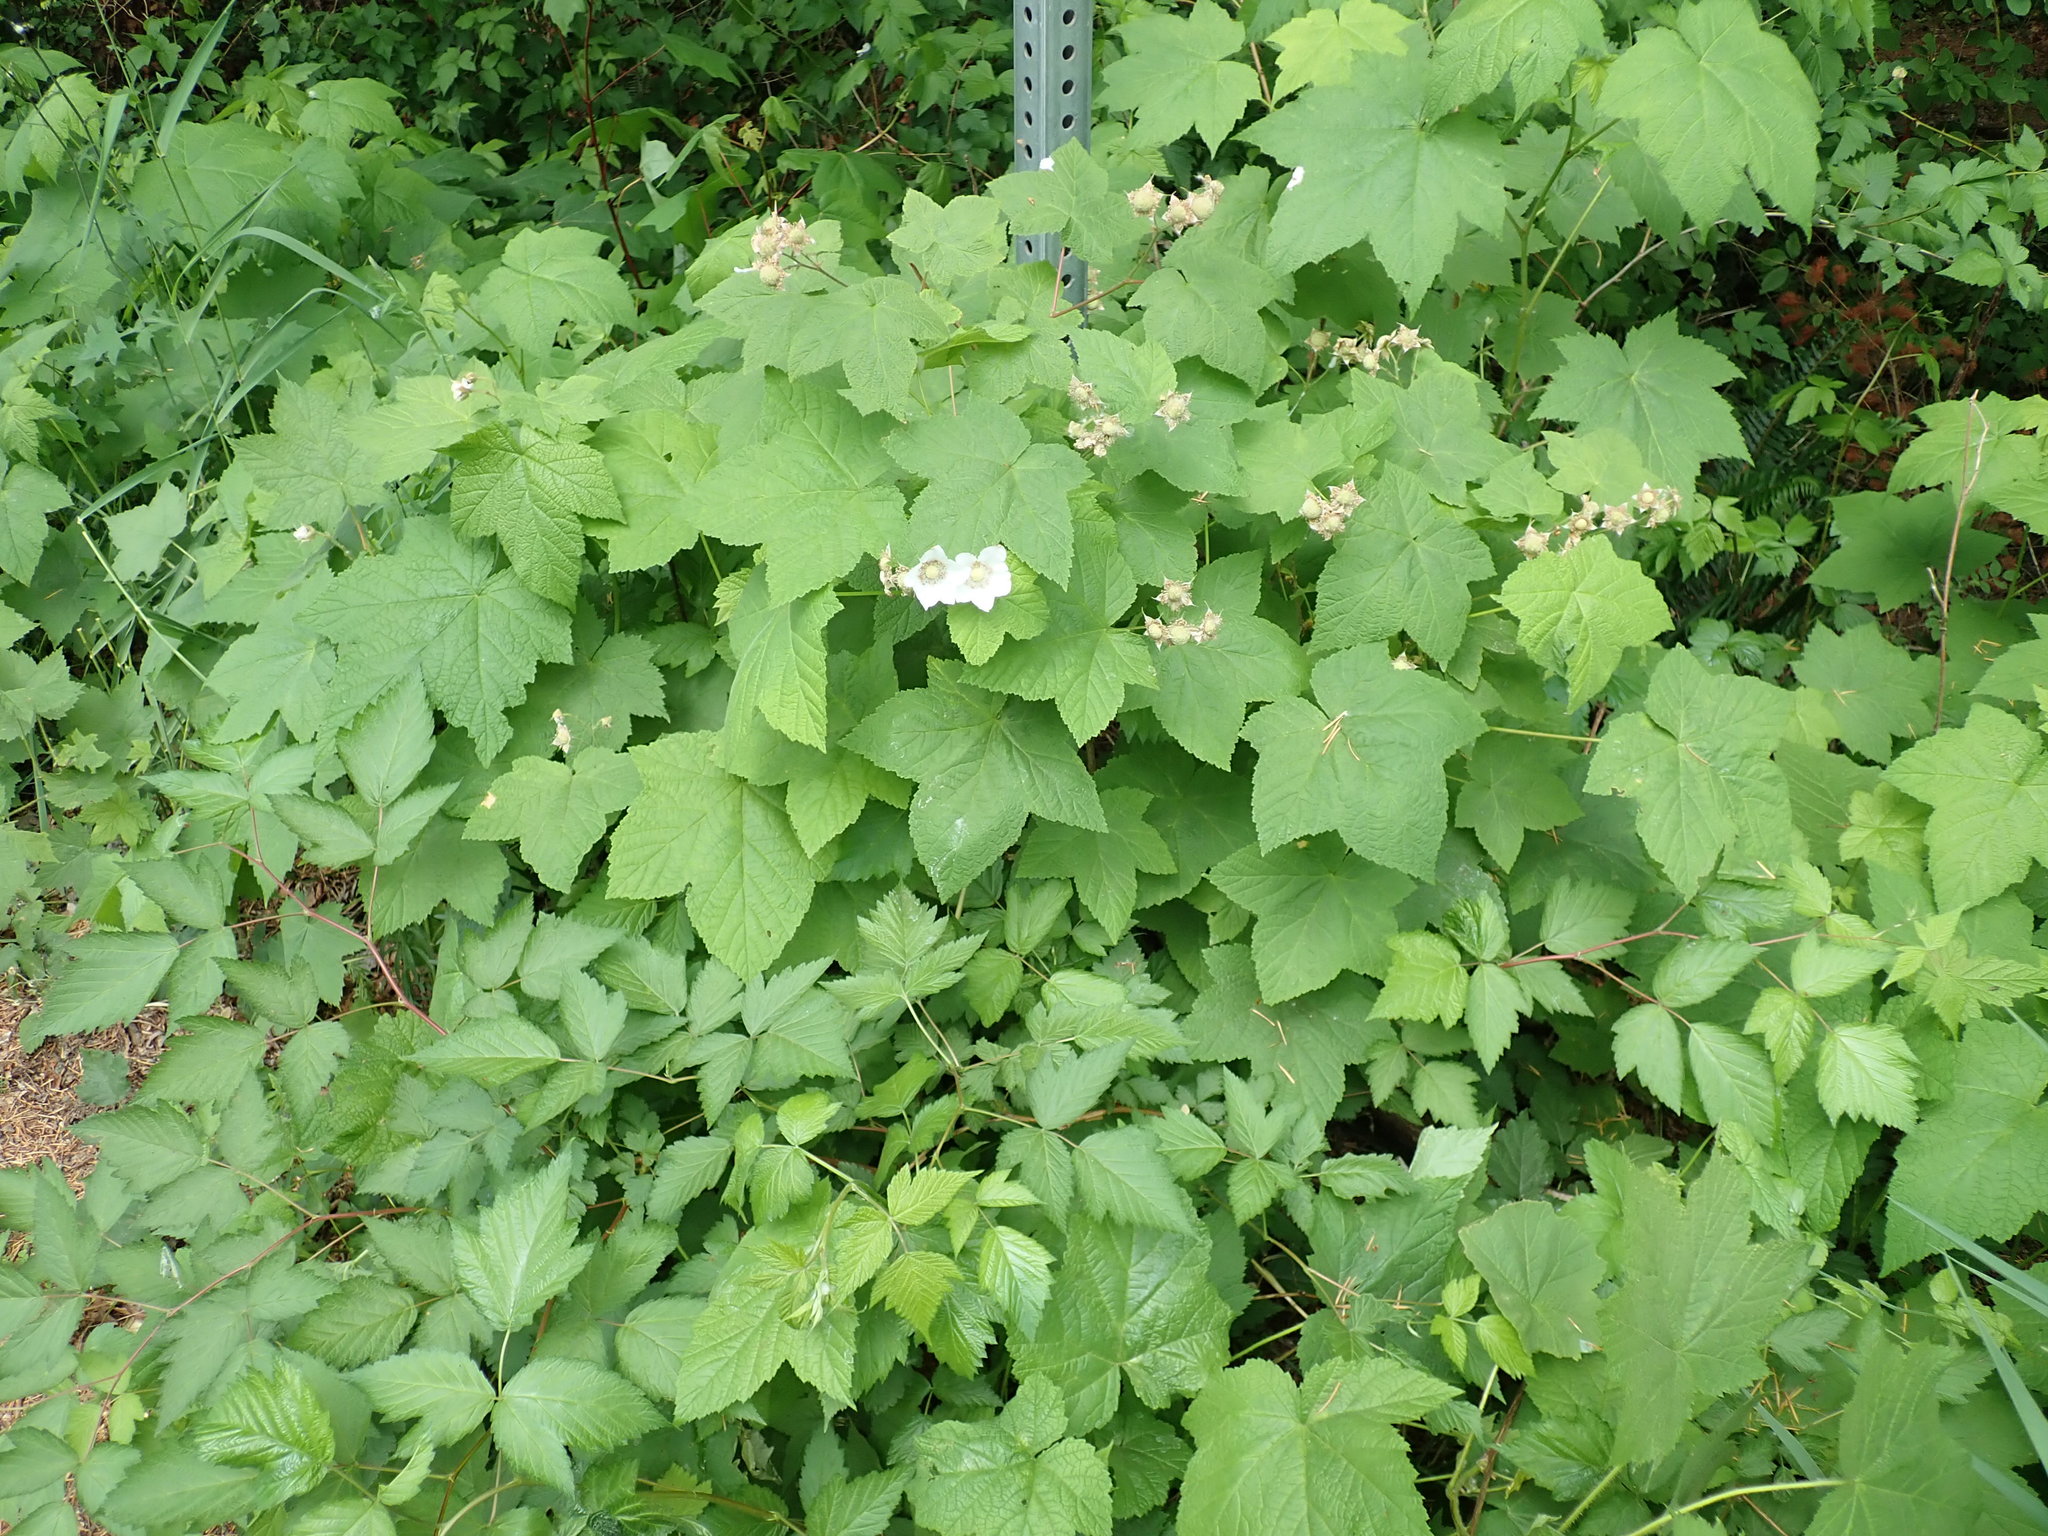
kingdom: Plantae
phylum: Tracheophyta
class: Magnoliopsida
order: Rosales
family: Rosaceae
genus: Rubus
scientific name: Rubus parviflorus
